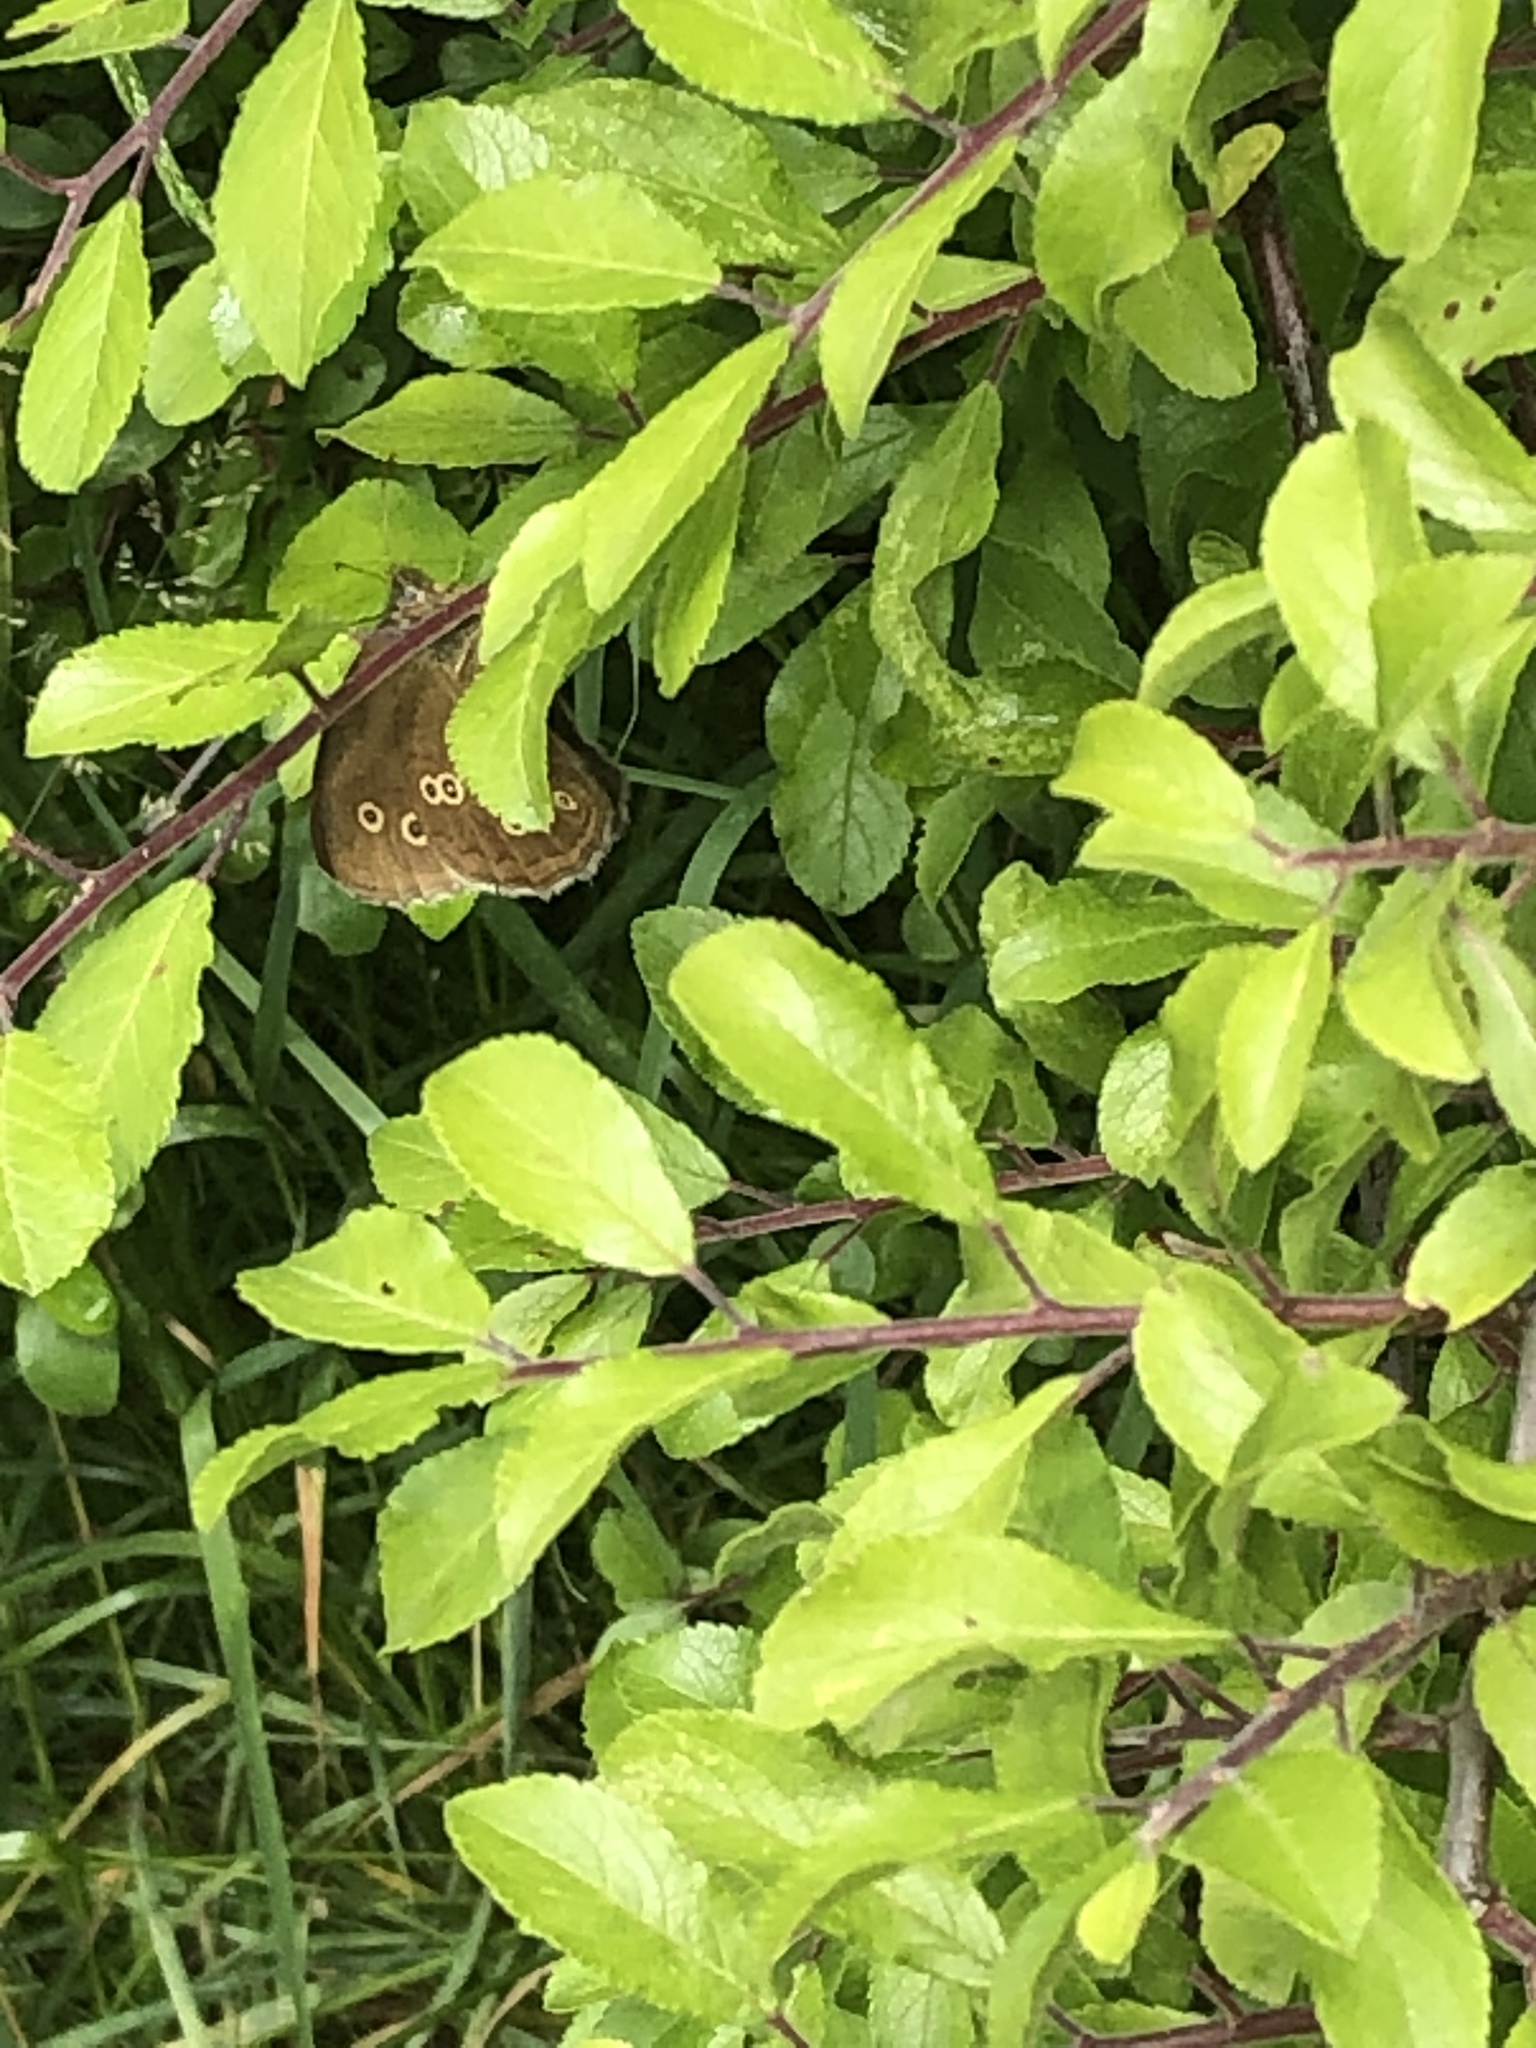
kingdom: Animalia
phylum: Arthropoda
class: Insecta
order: Lepidoptera
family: Nymphalidae
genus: Aphantopus
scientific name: Aphantopus hyperantus
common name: Ringlet
